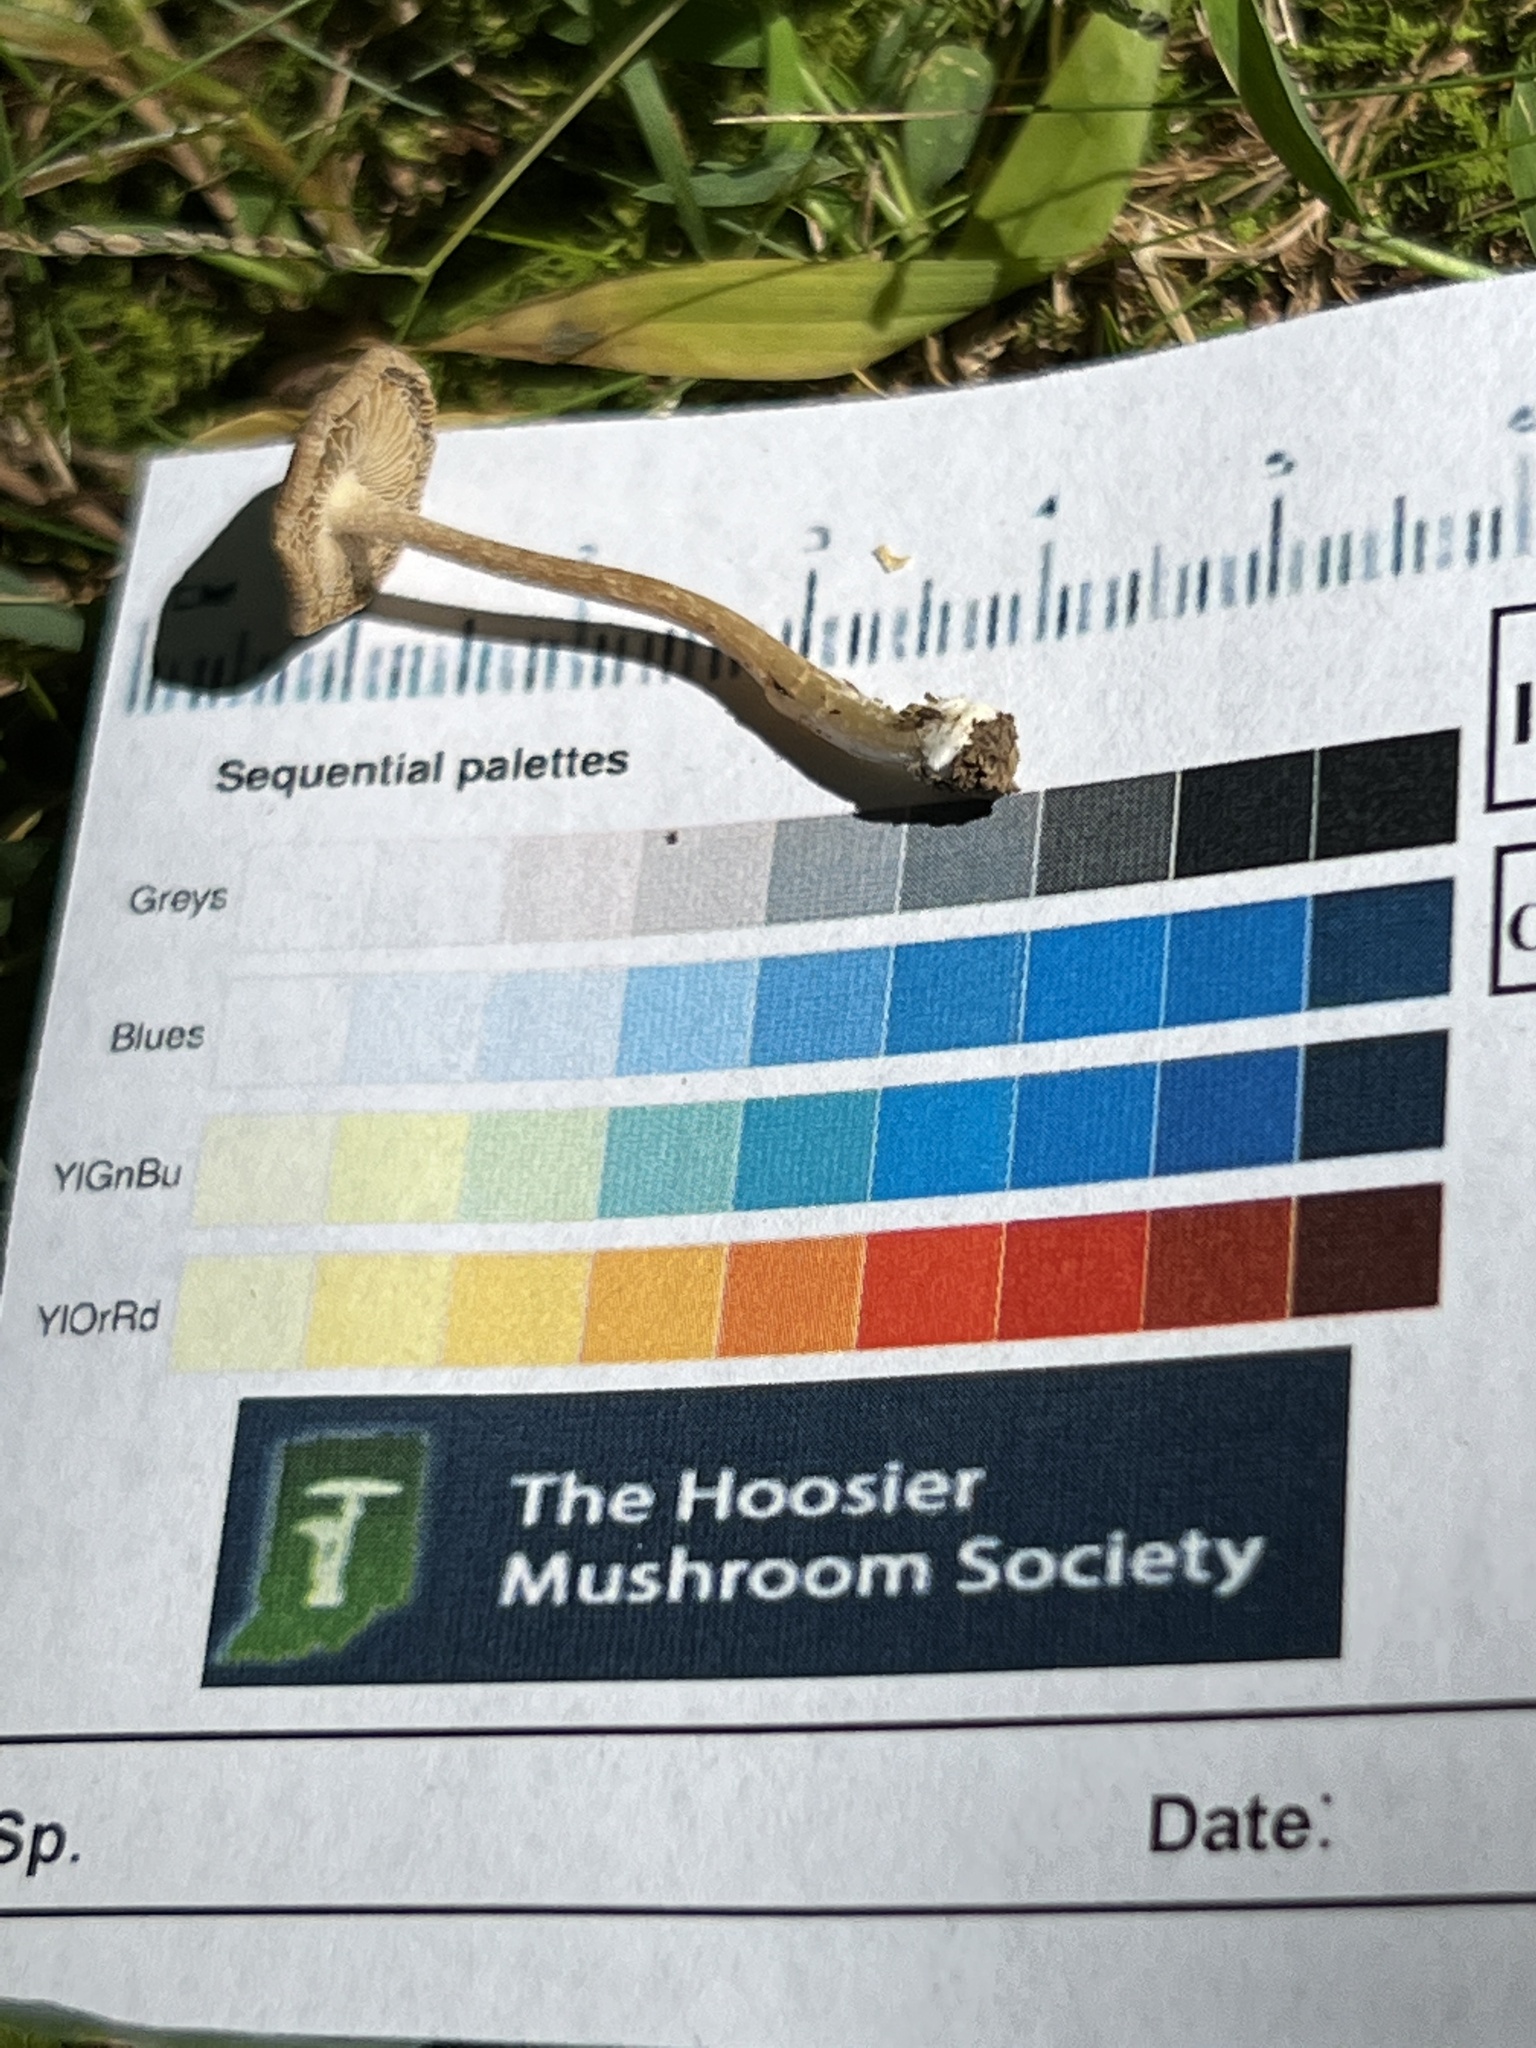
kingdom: Fungi
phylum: Basidiomycota
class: Agaricomycetes
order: Agaricales
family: Inocybaceae
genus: Pseudosperma
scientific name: Pseudosperma friabile
